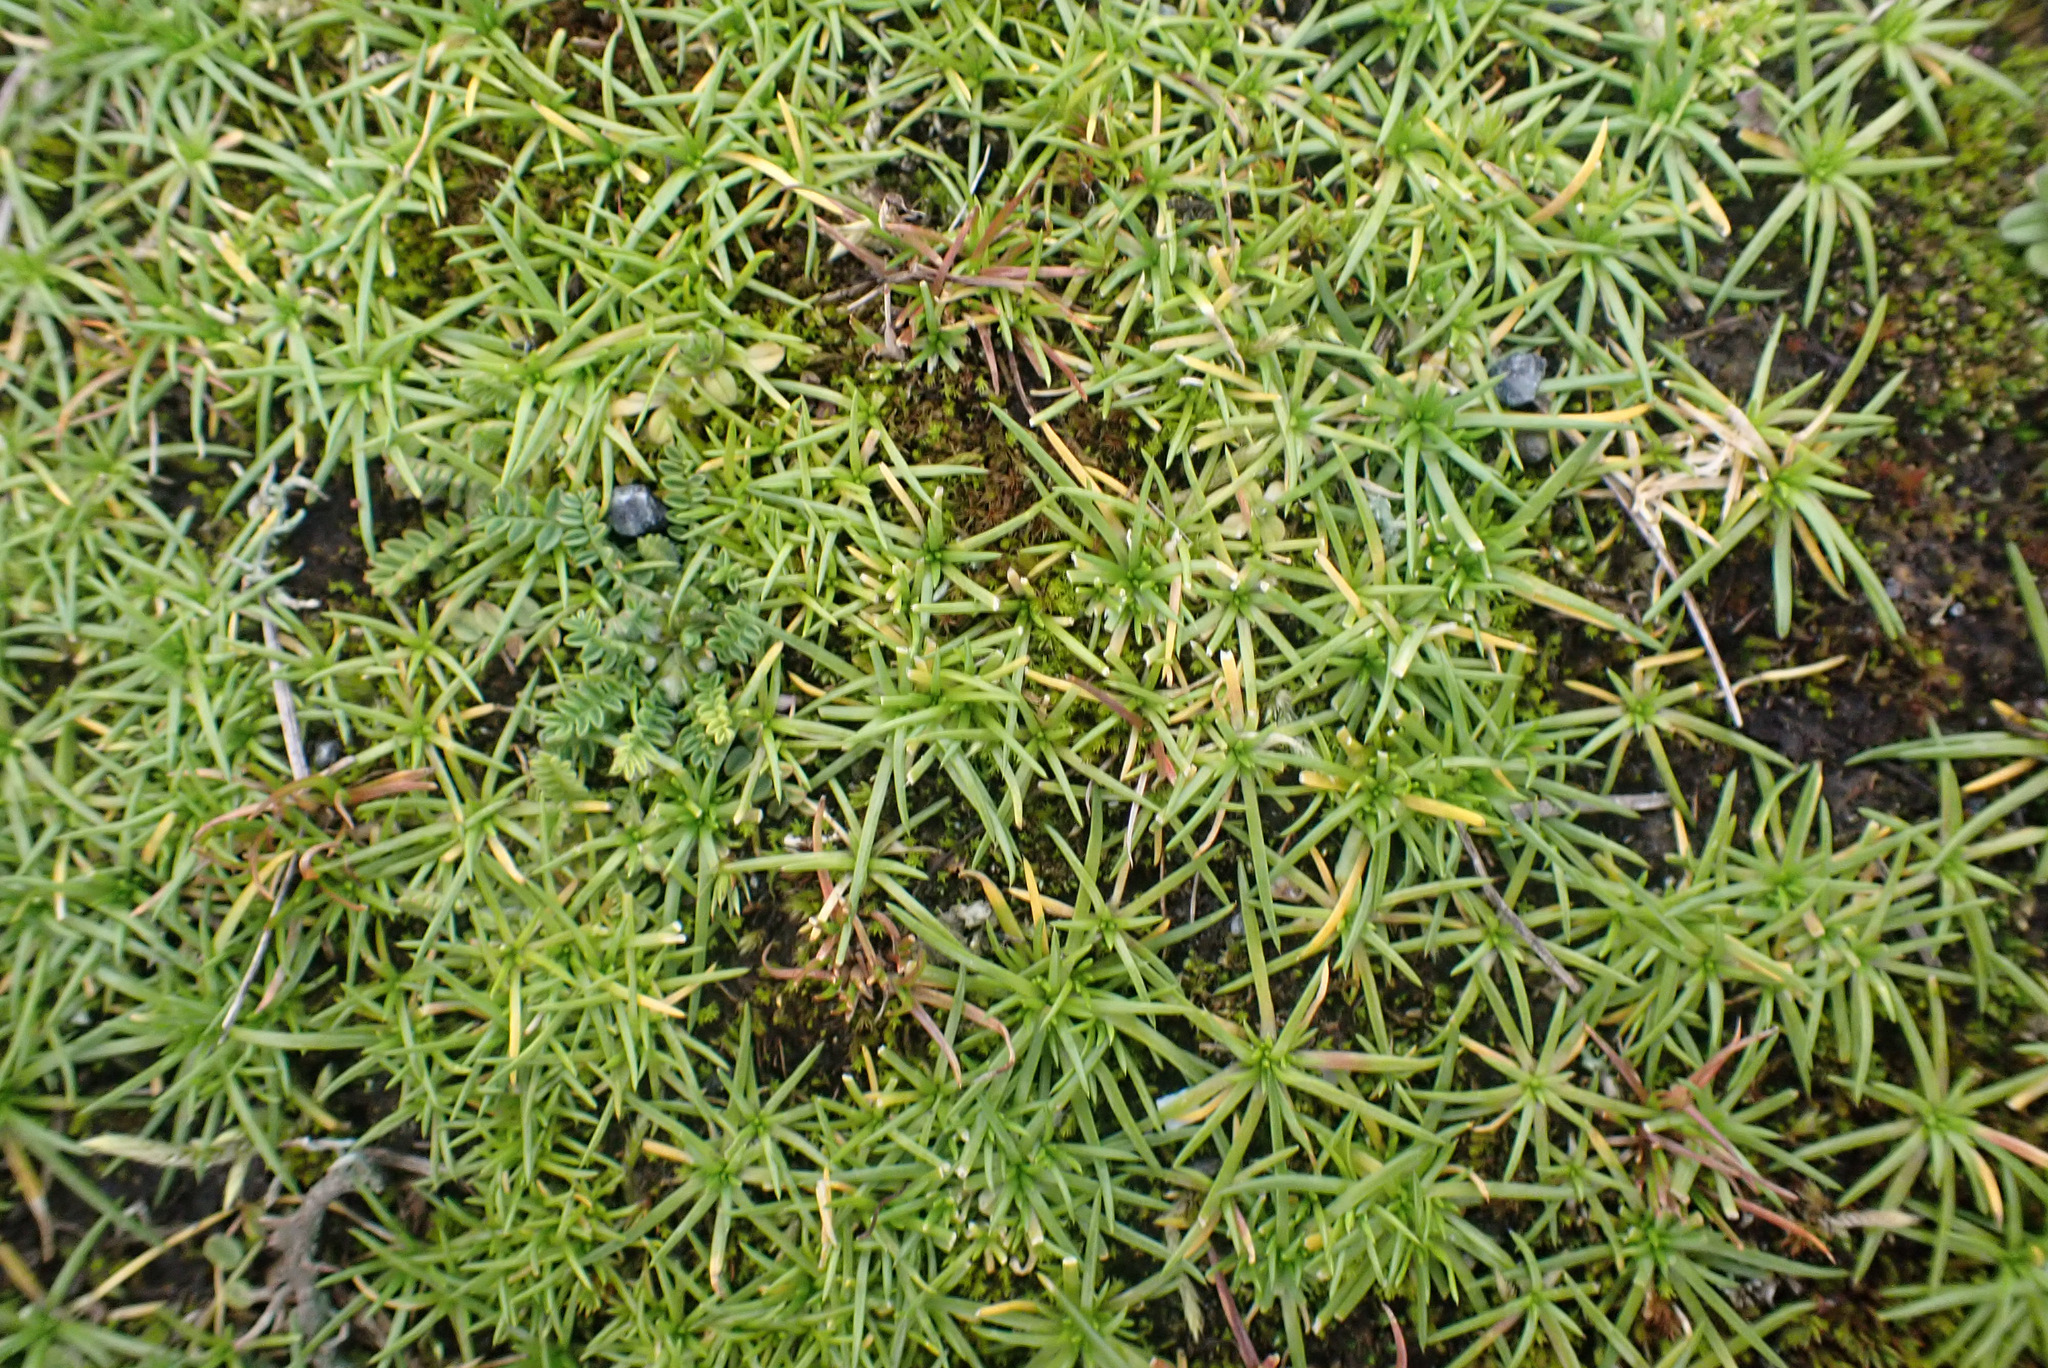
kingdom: Plantae
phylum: Tracheophyta
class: Magnoliopsida
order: Caryophyllales
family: Caryophyllaceae
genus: Sagina
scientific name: Sagina procumbens
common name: Procumbent pearlwort
